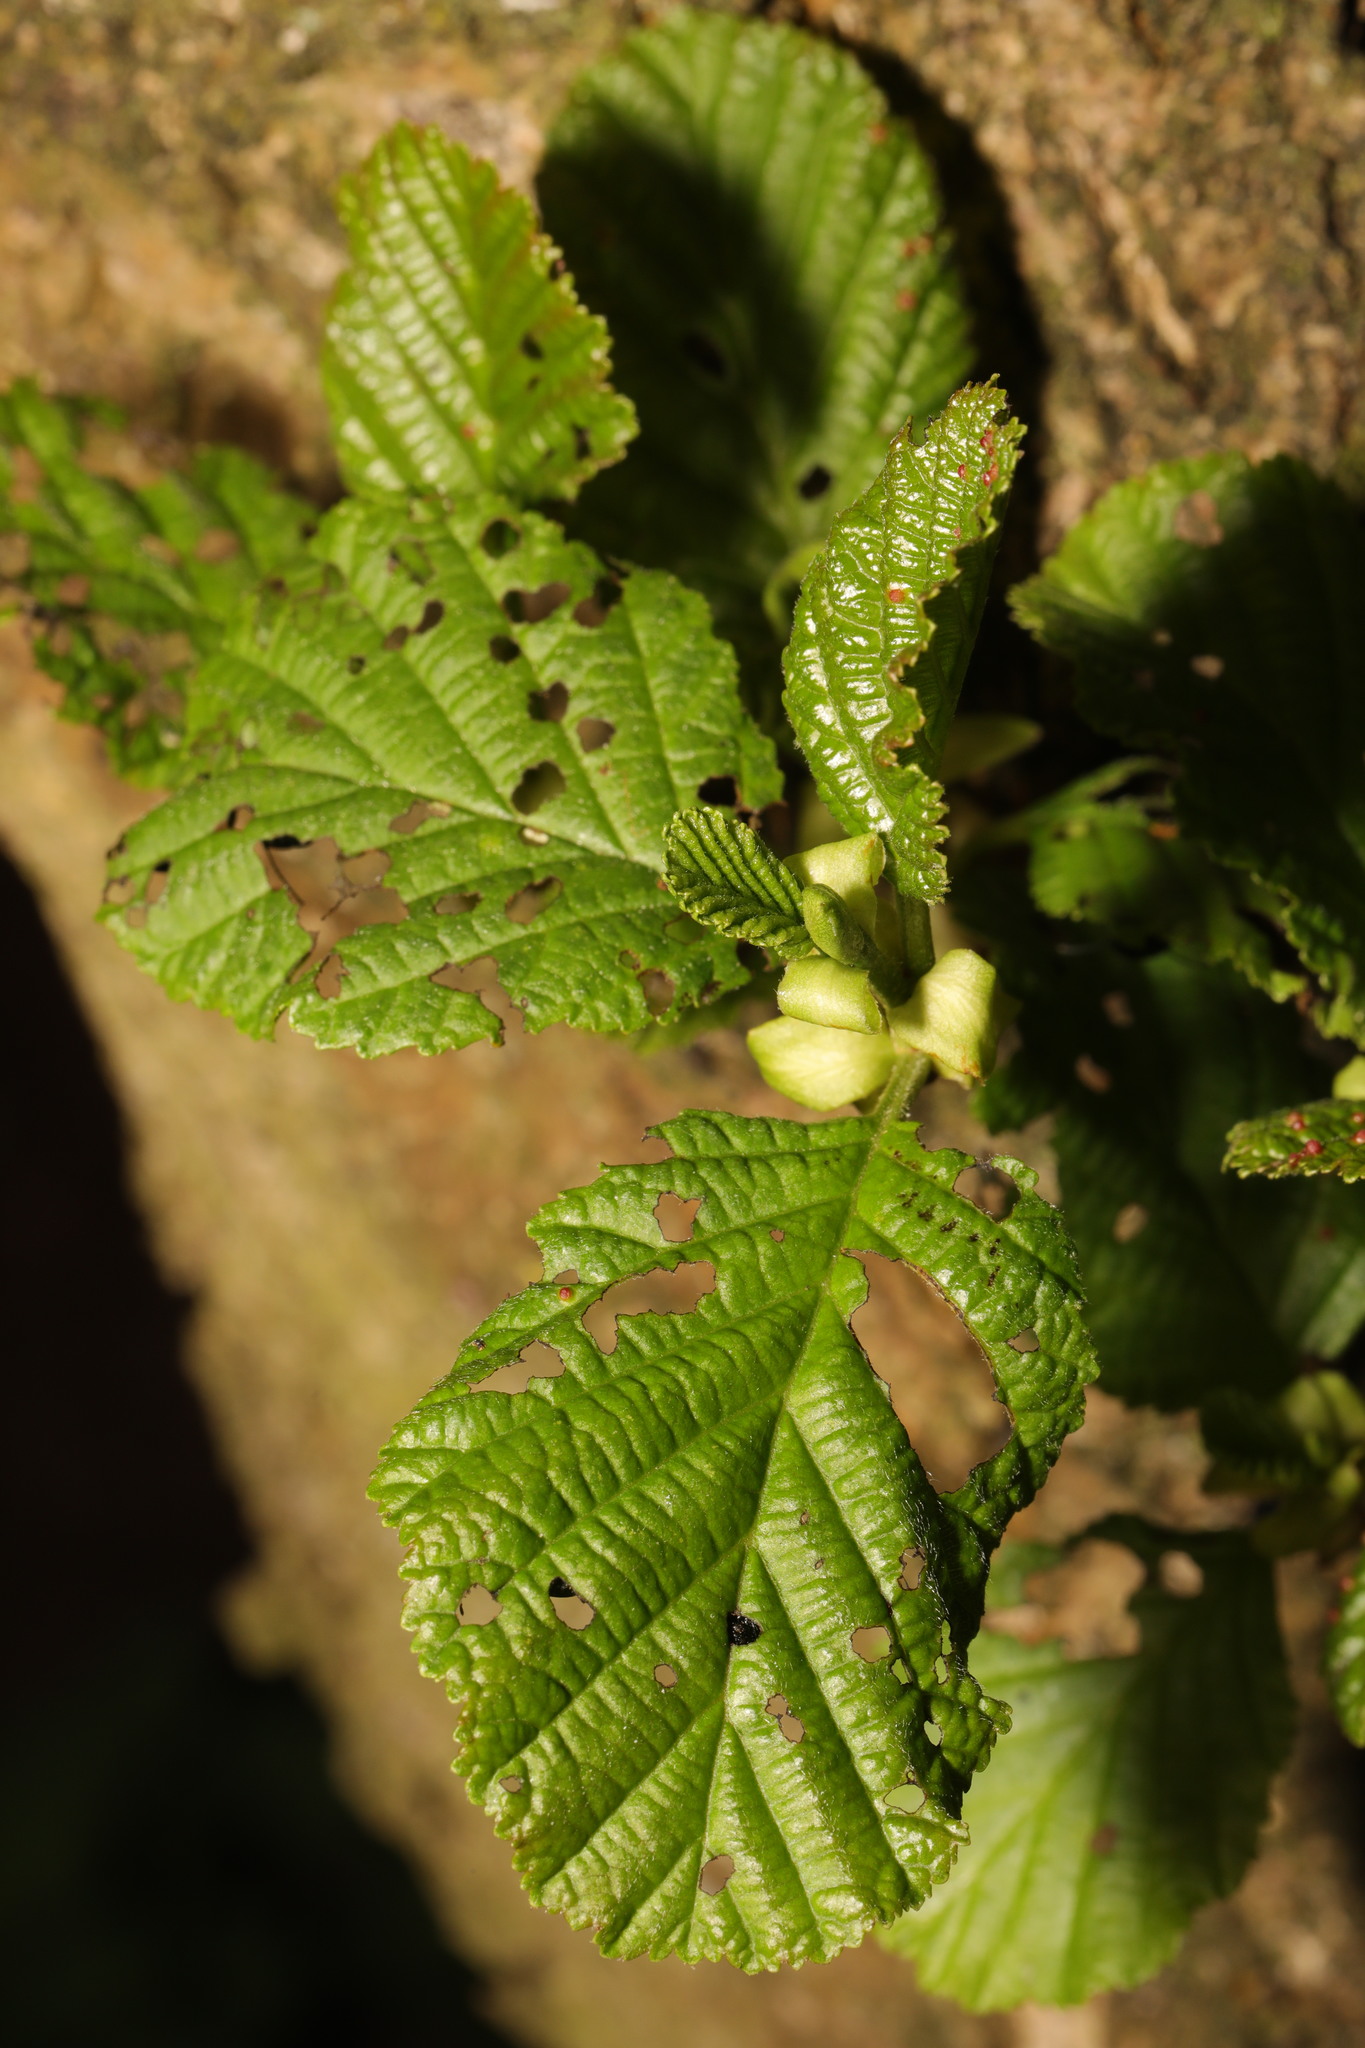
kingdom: Plantae
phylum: Tracheophyta
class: Magnoliopsida
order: Fagales
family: Betulaceae
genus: Alnus
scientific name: Alnus glutinosa
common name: Black alder
